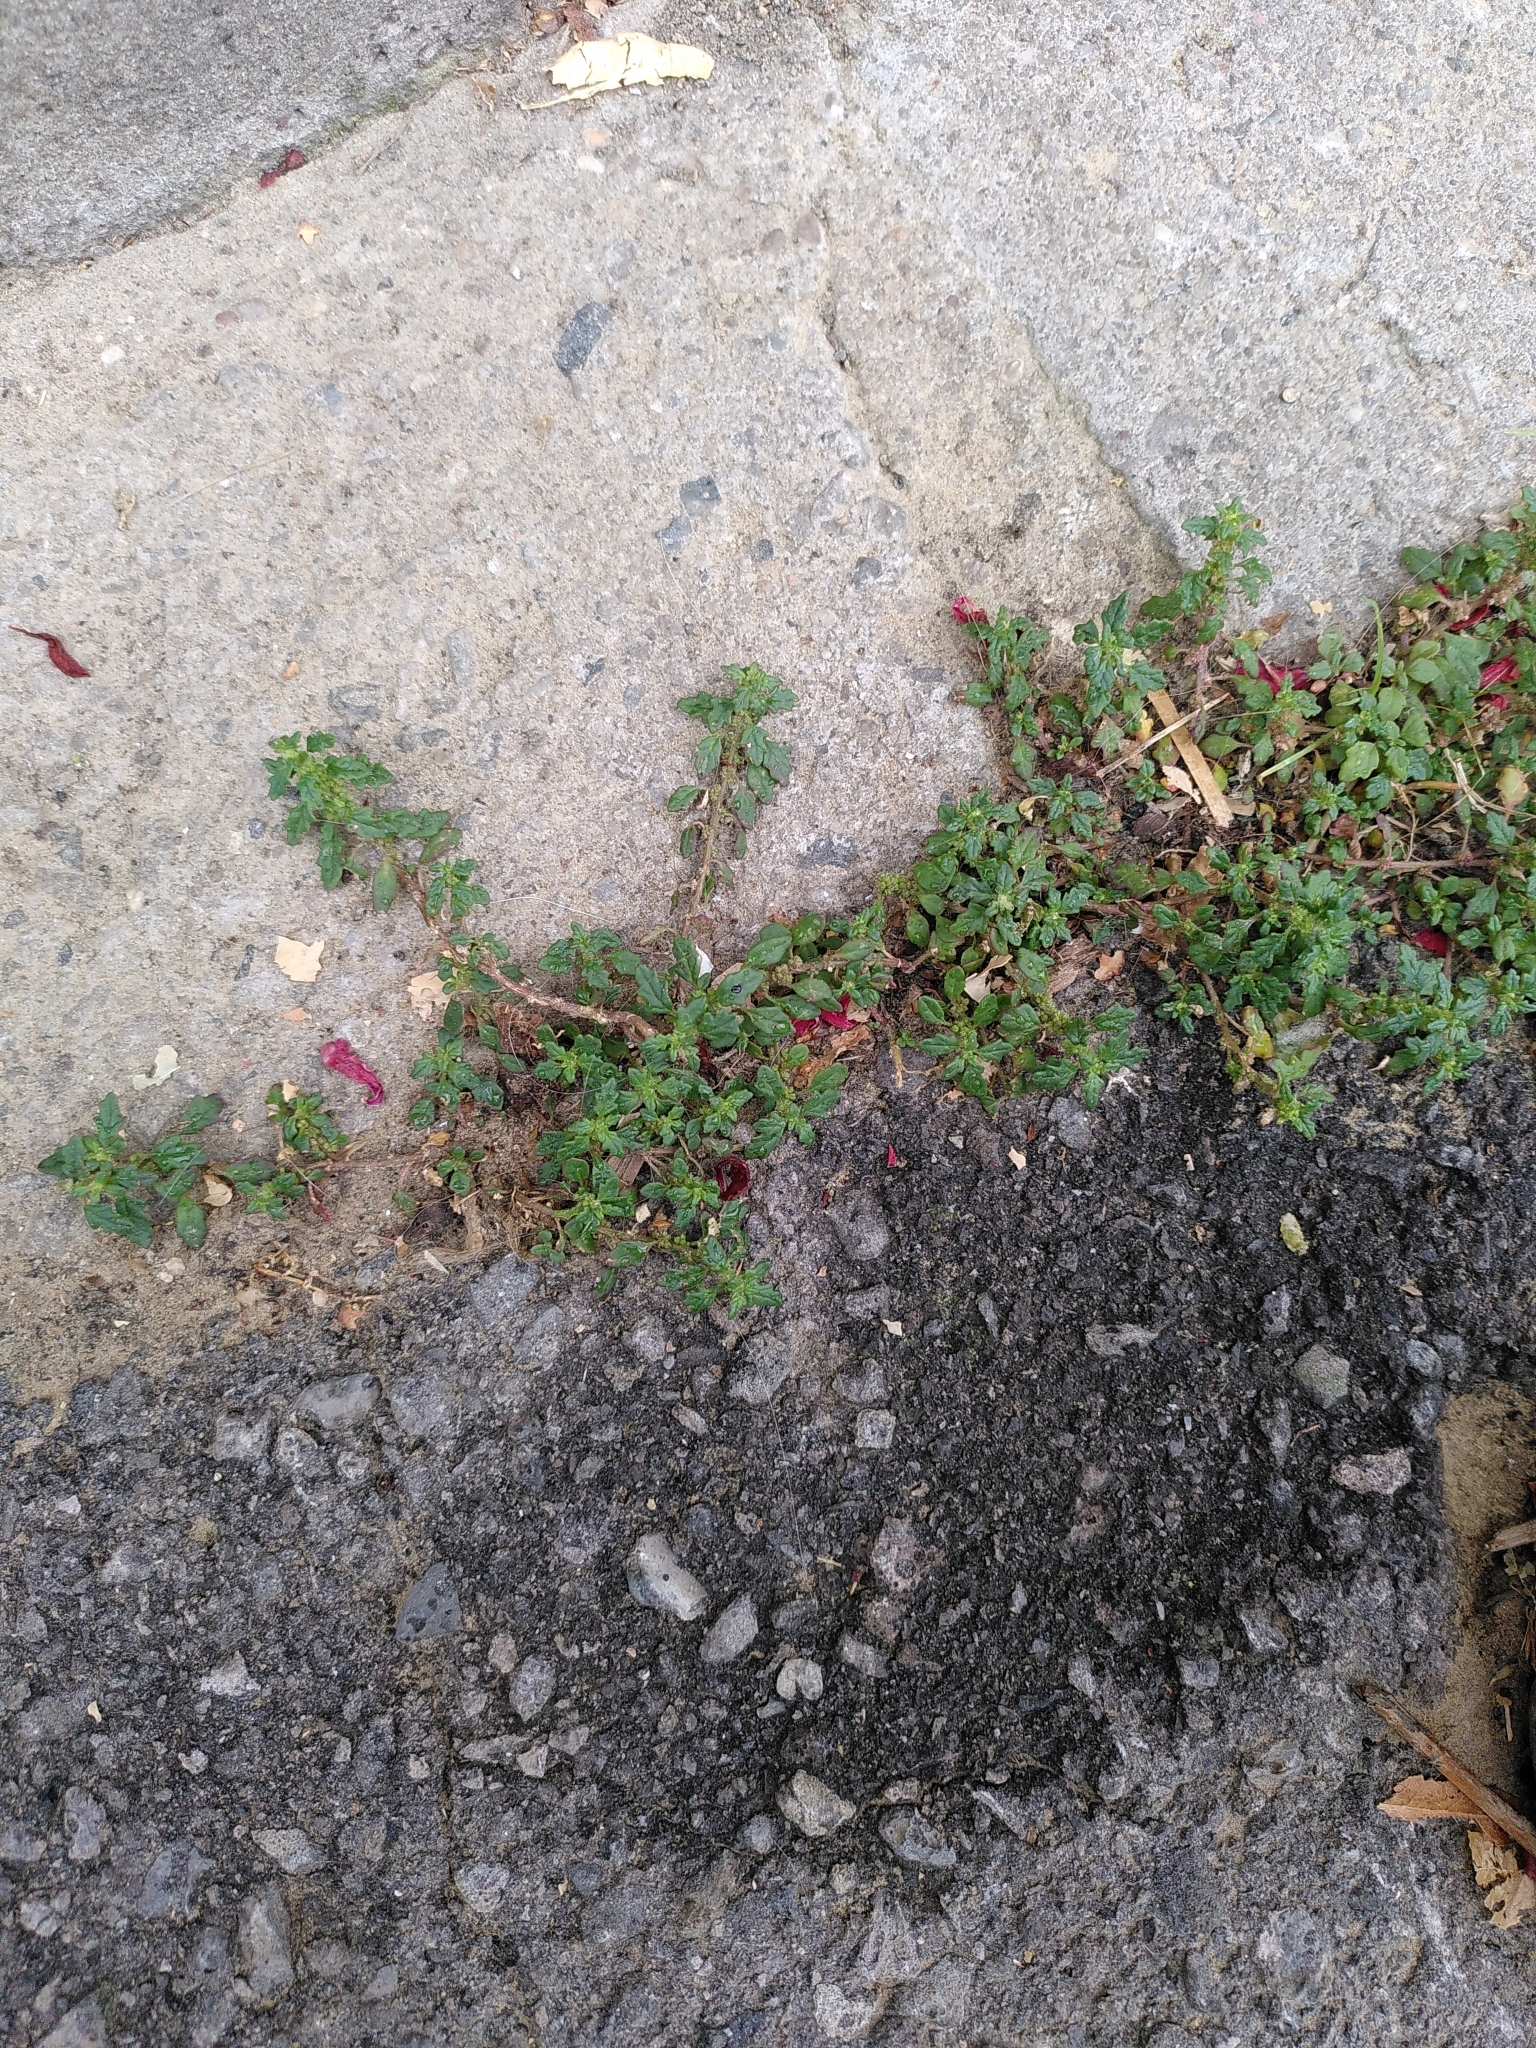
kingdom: Plantae
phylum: Tracheophyta
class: Magnoliopsida
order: Caryophyllales
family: Amaranthaceae
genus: Dysphania
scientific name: Dysphania pumilio
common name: Clammy goosefoot
